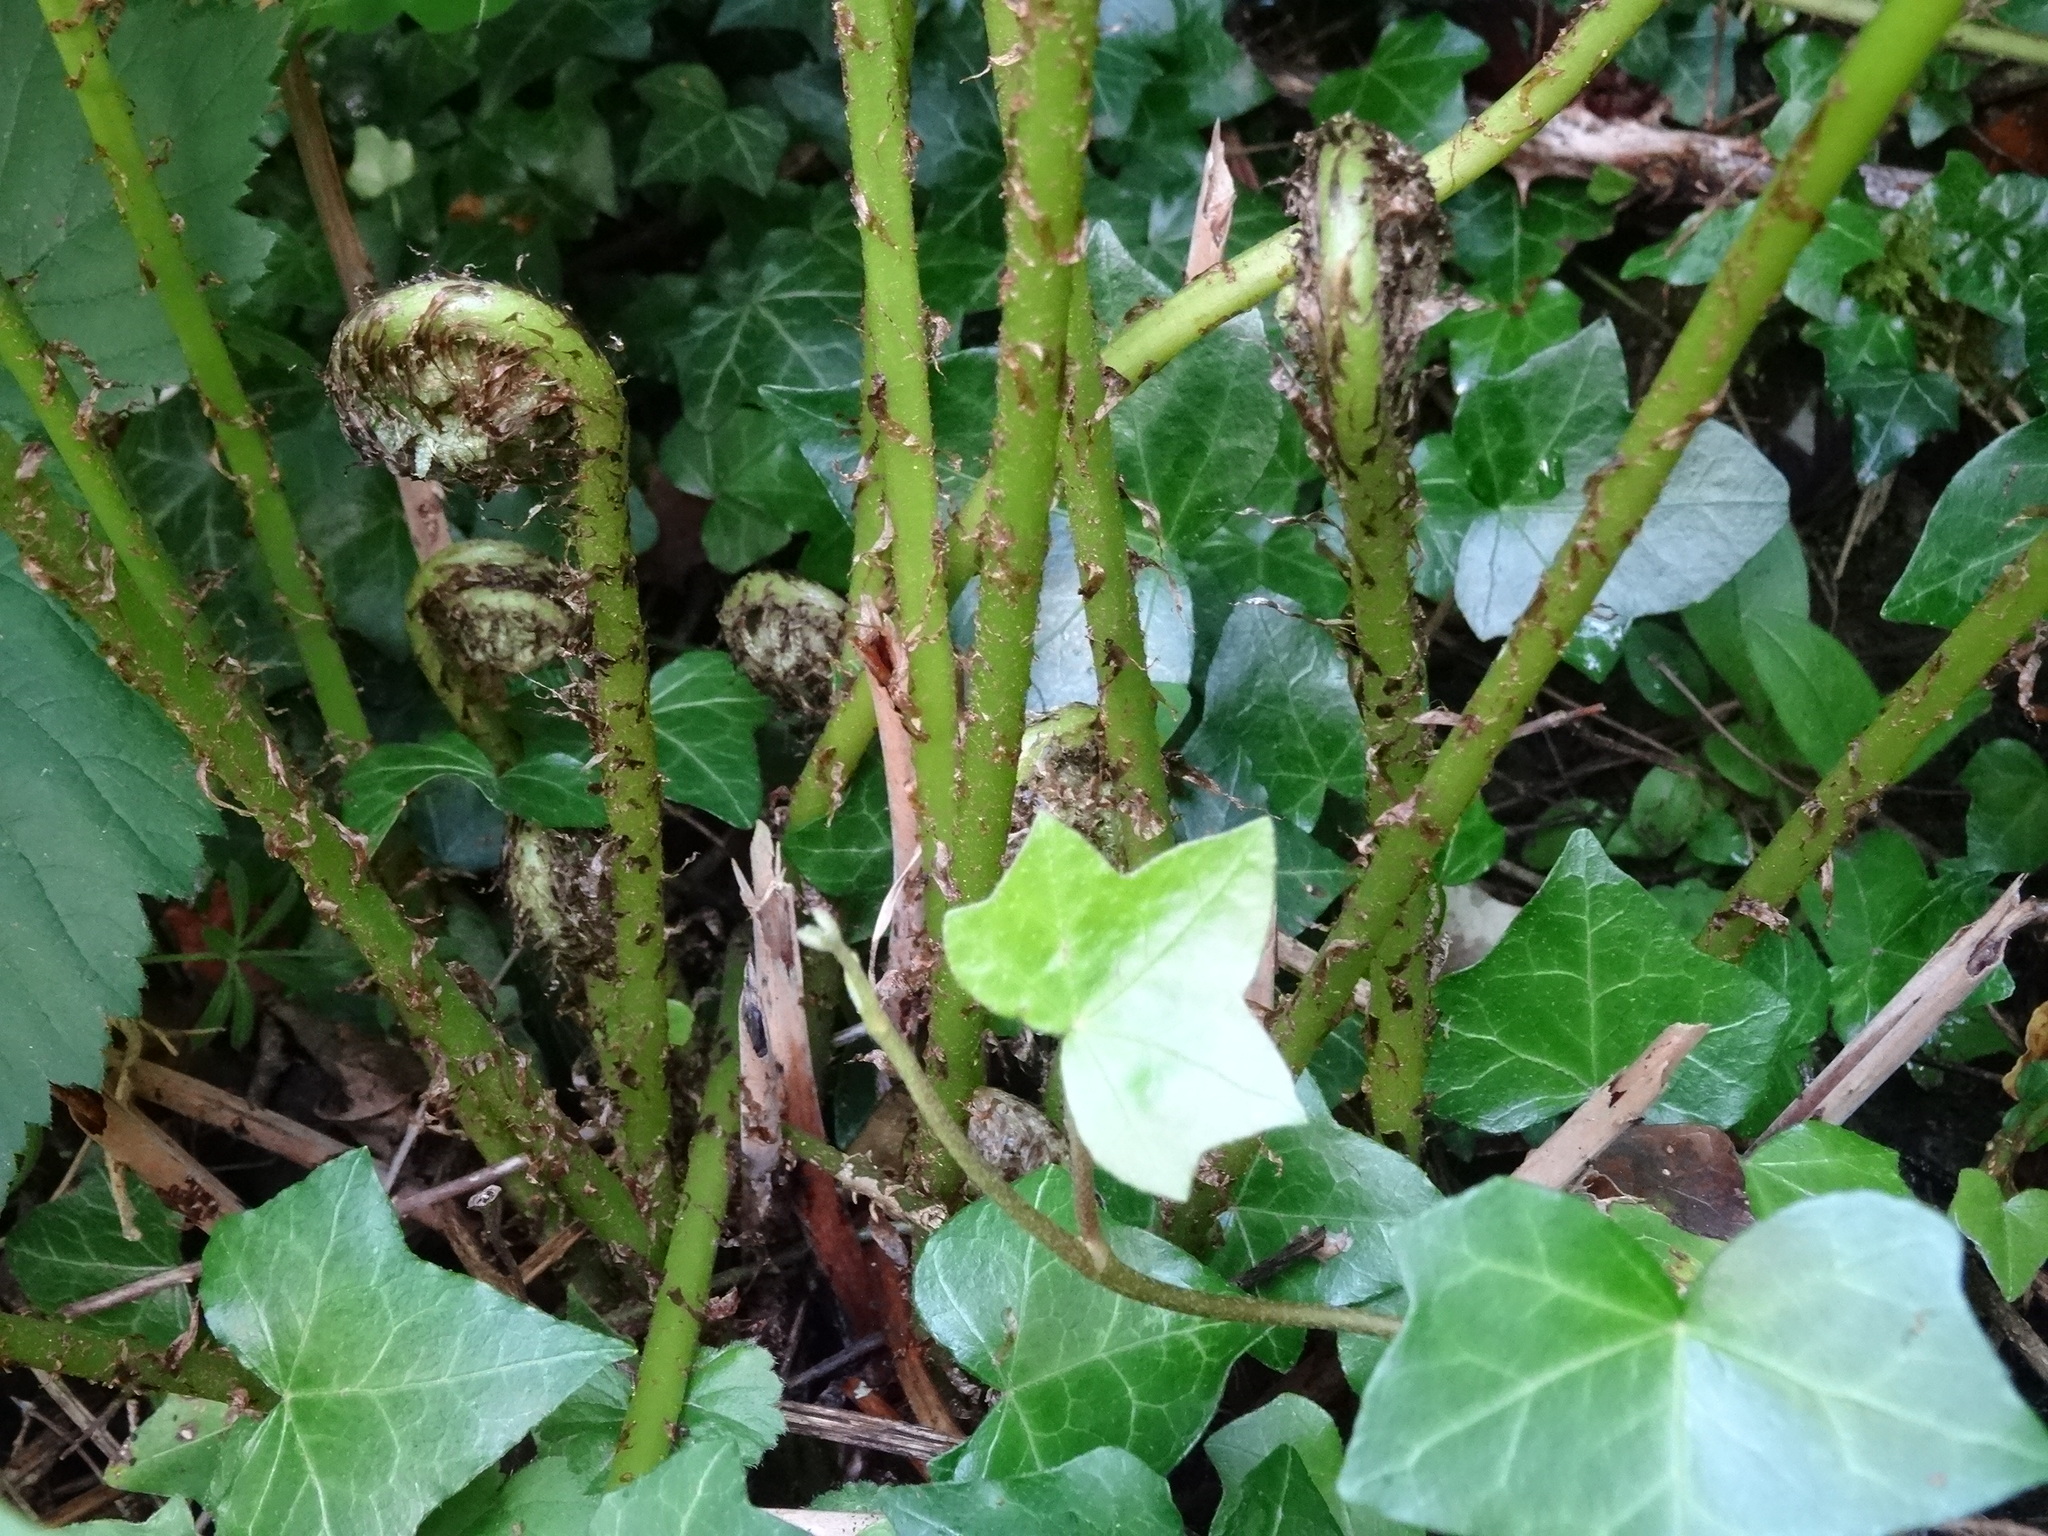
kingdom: Plantae
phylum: Tracheophyta
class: Polypodiopsida
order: Polypodiales
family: Athyriaceae
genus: Athyrium
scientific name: Athyrium filix-femina
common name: Lady fern
